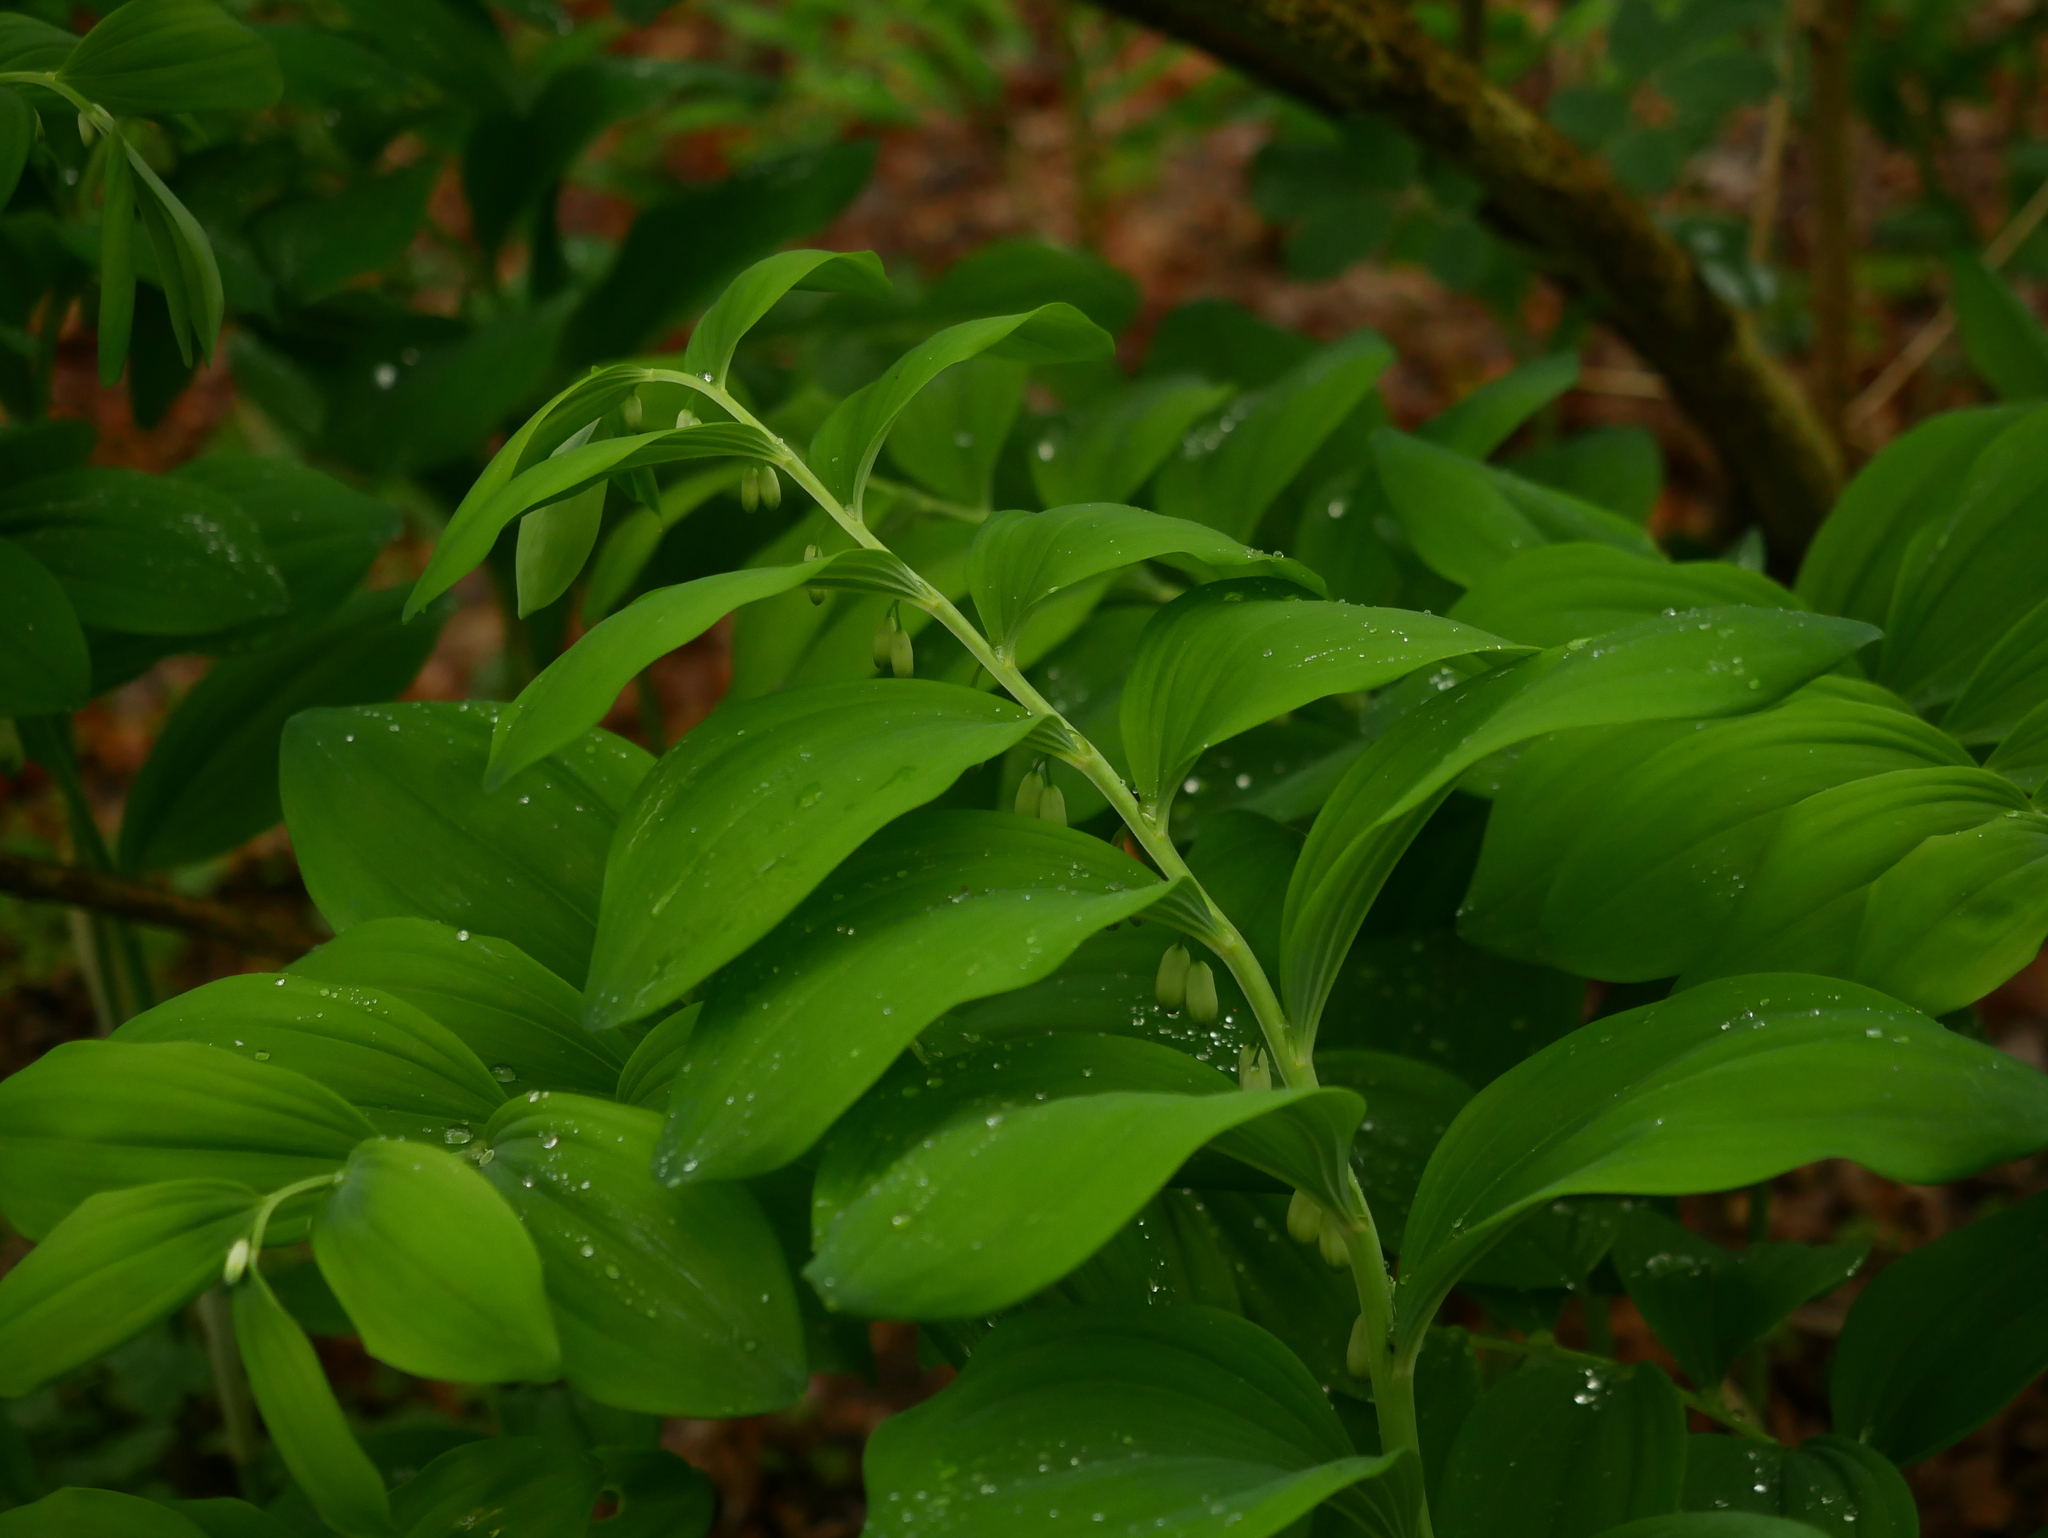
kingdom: Plantae
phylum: Tracheophyta
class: Liliopsida
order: Asparagales
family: Asparagaceae
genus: Polygonatum
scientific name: Polygonatum multiflorum
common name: Solomon's-seal
